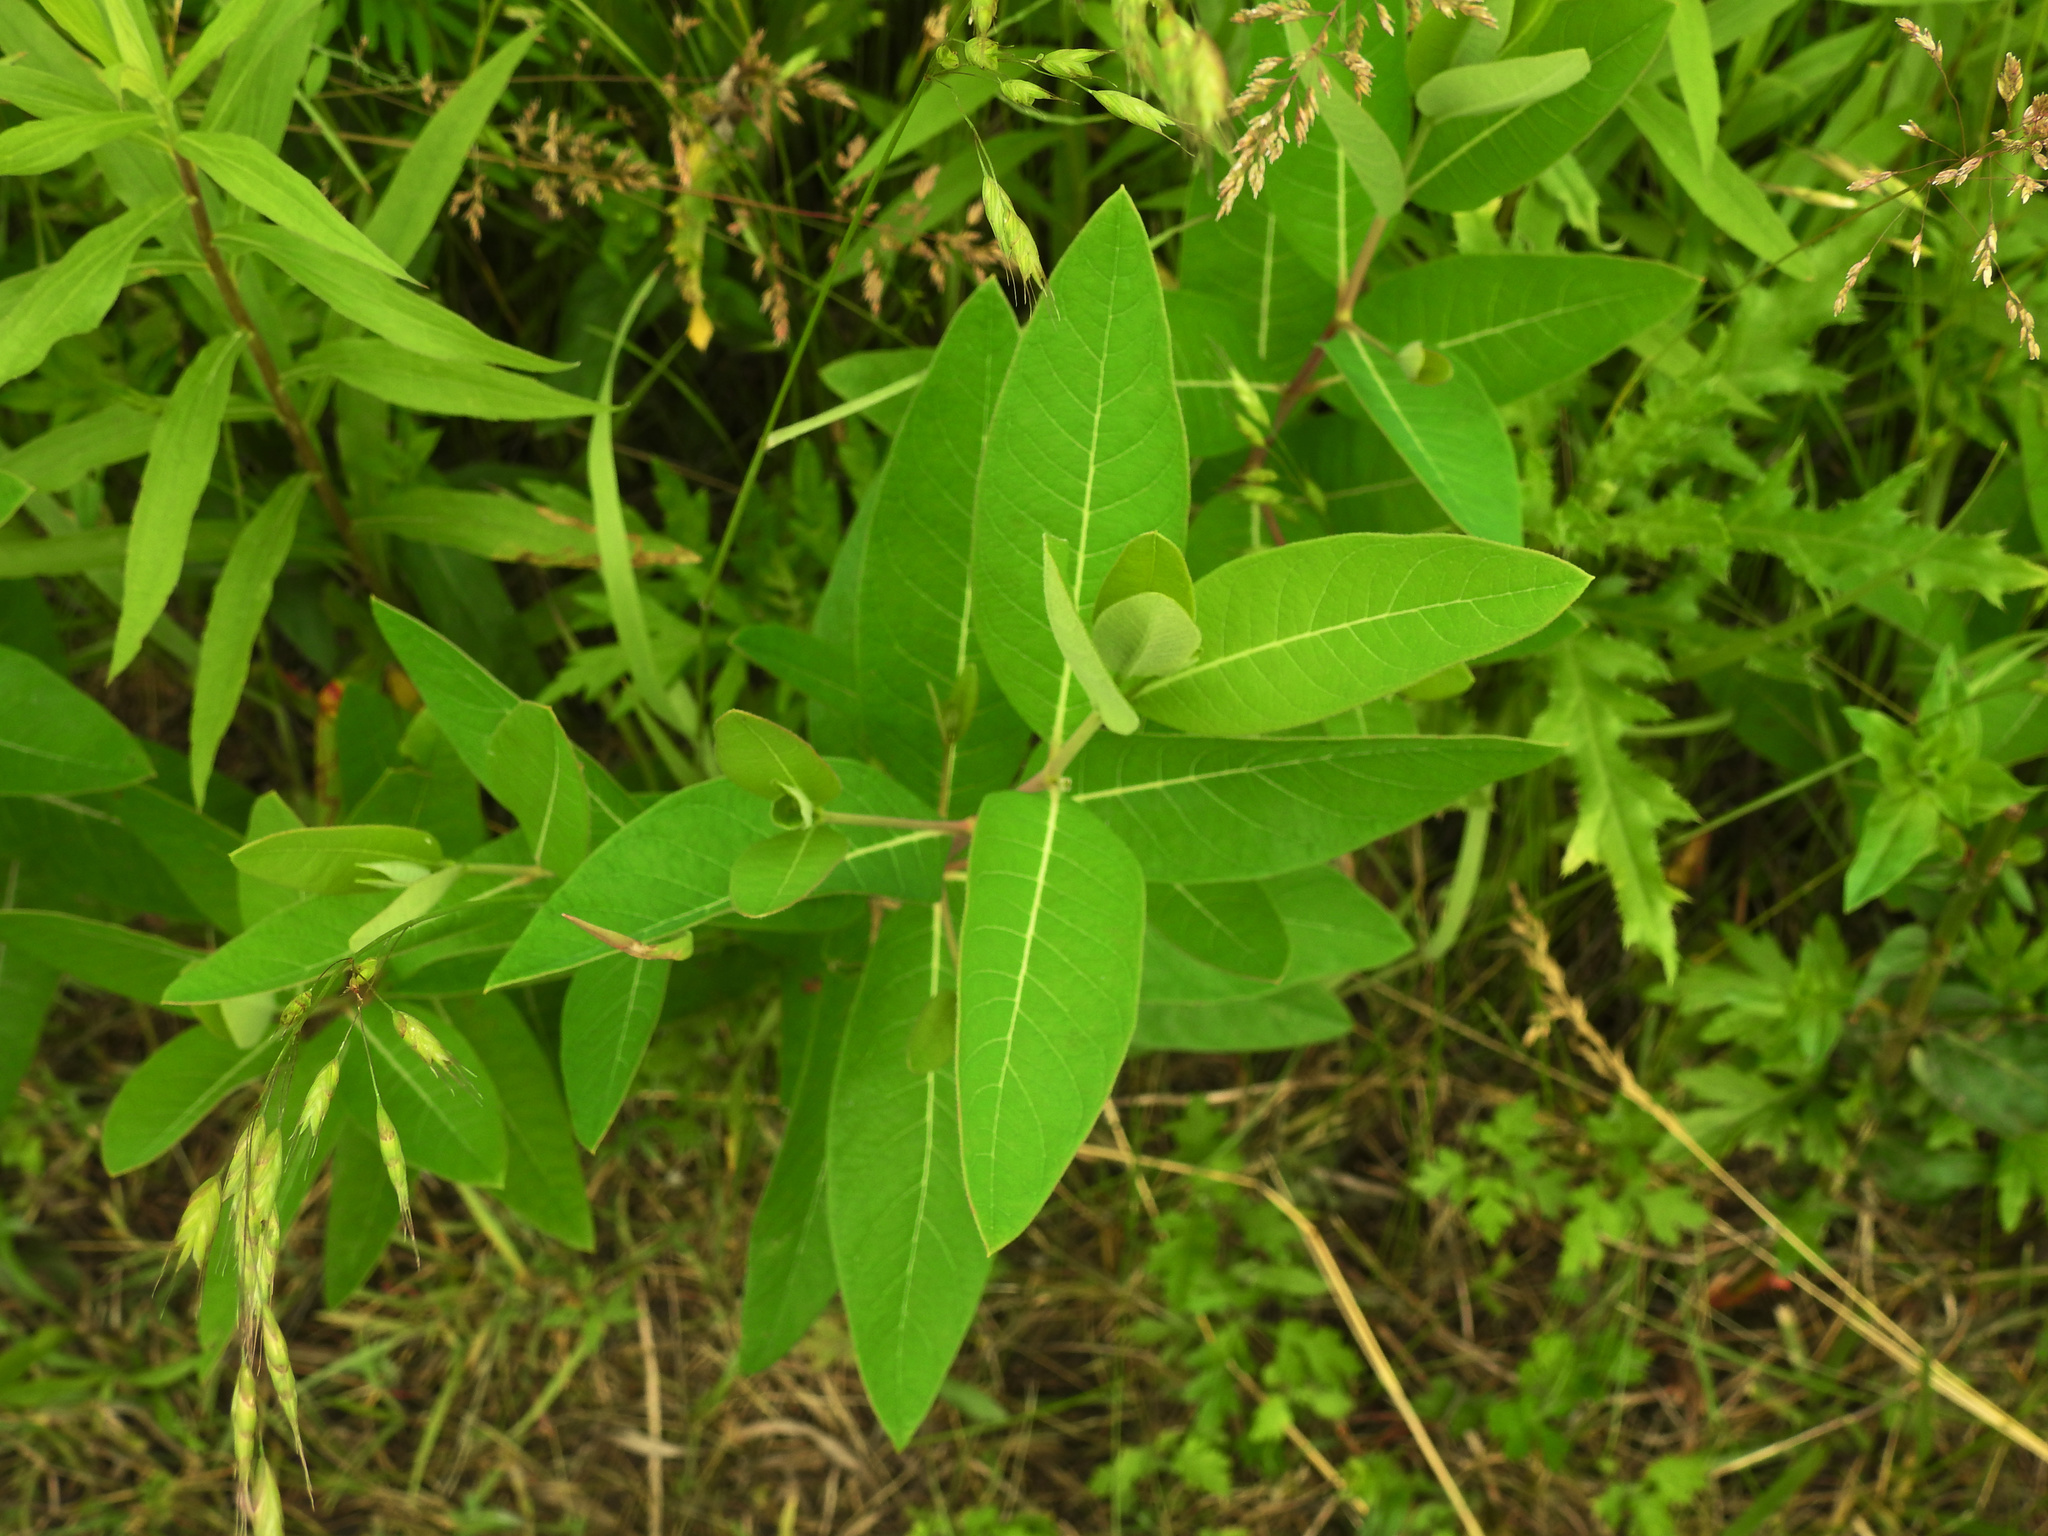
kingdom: Plantae
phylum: Tracheophyta
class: Magnoliopsida
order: Gentianales
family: Apocynaceae
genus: Apocynum
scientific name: Apocynum cannabinum
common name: Hemp dogbane
